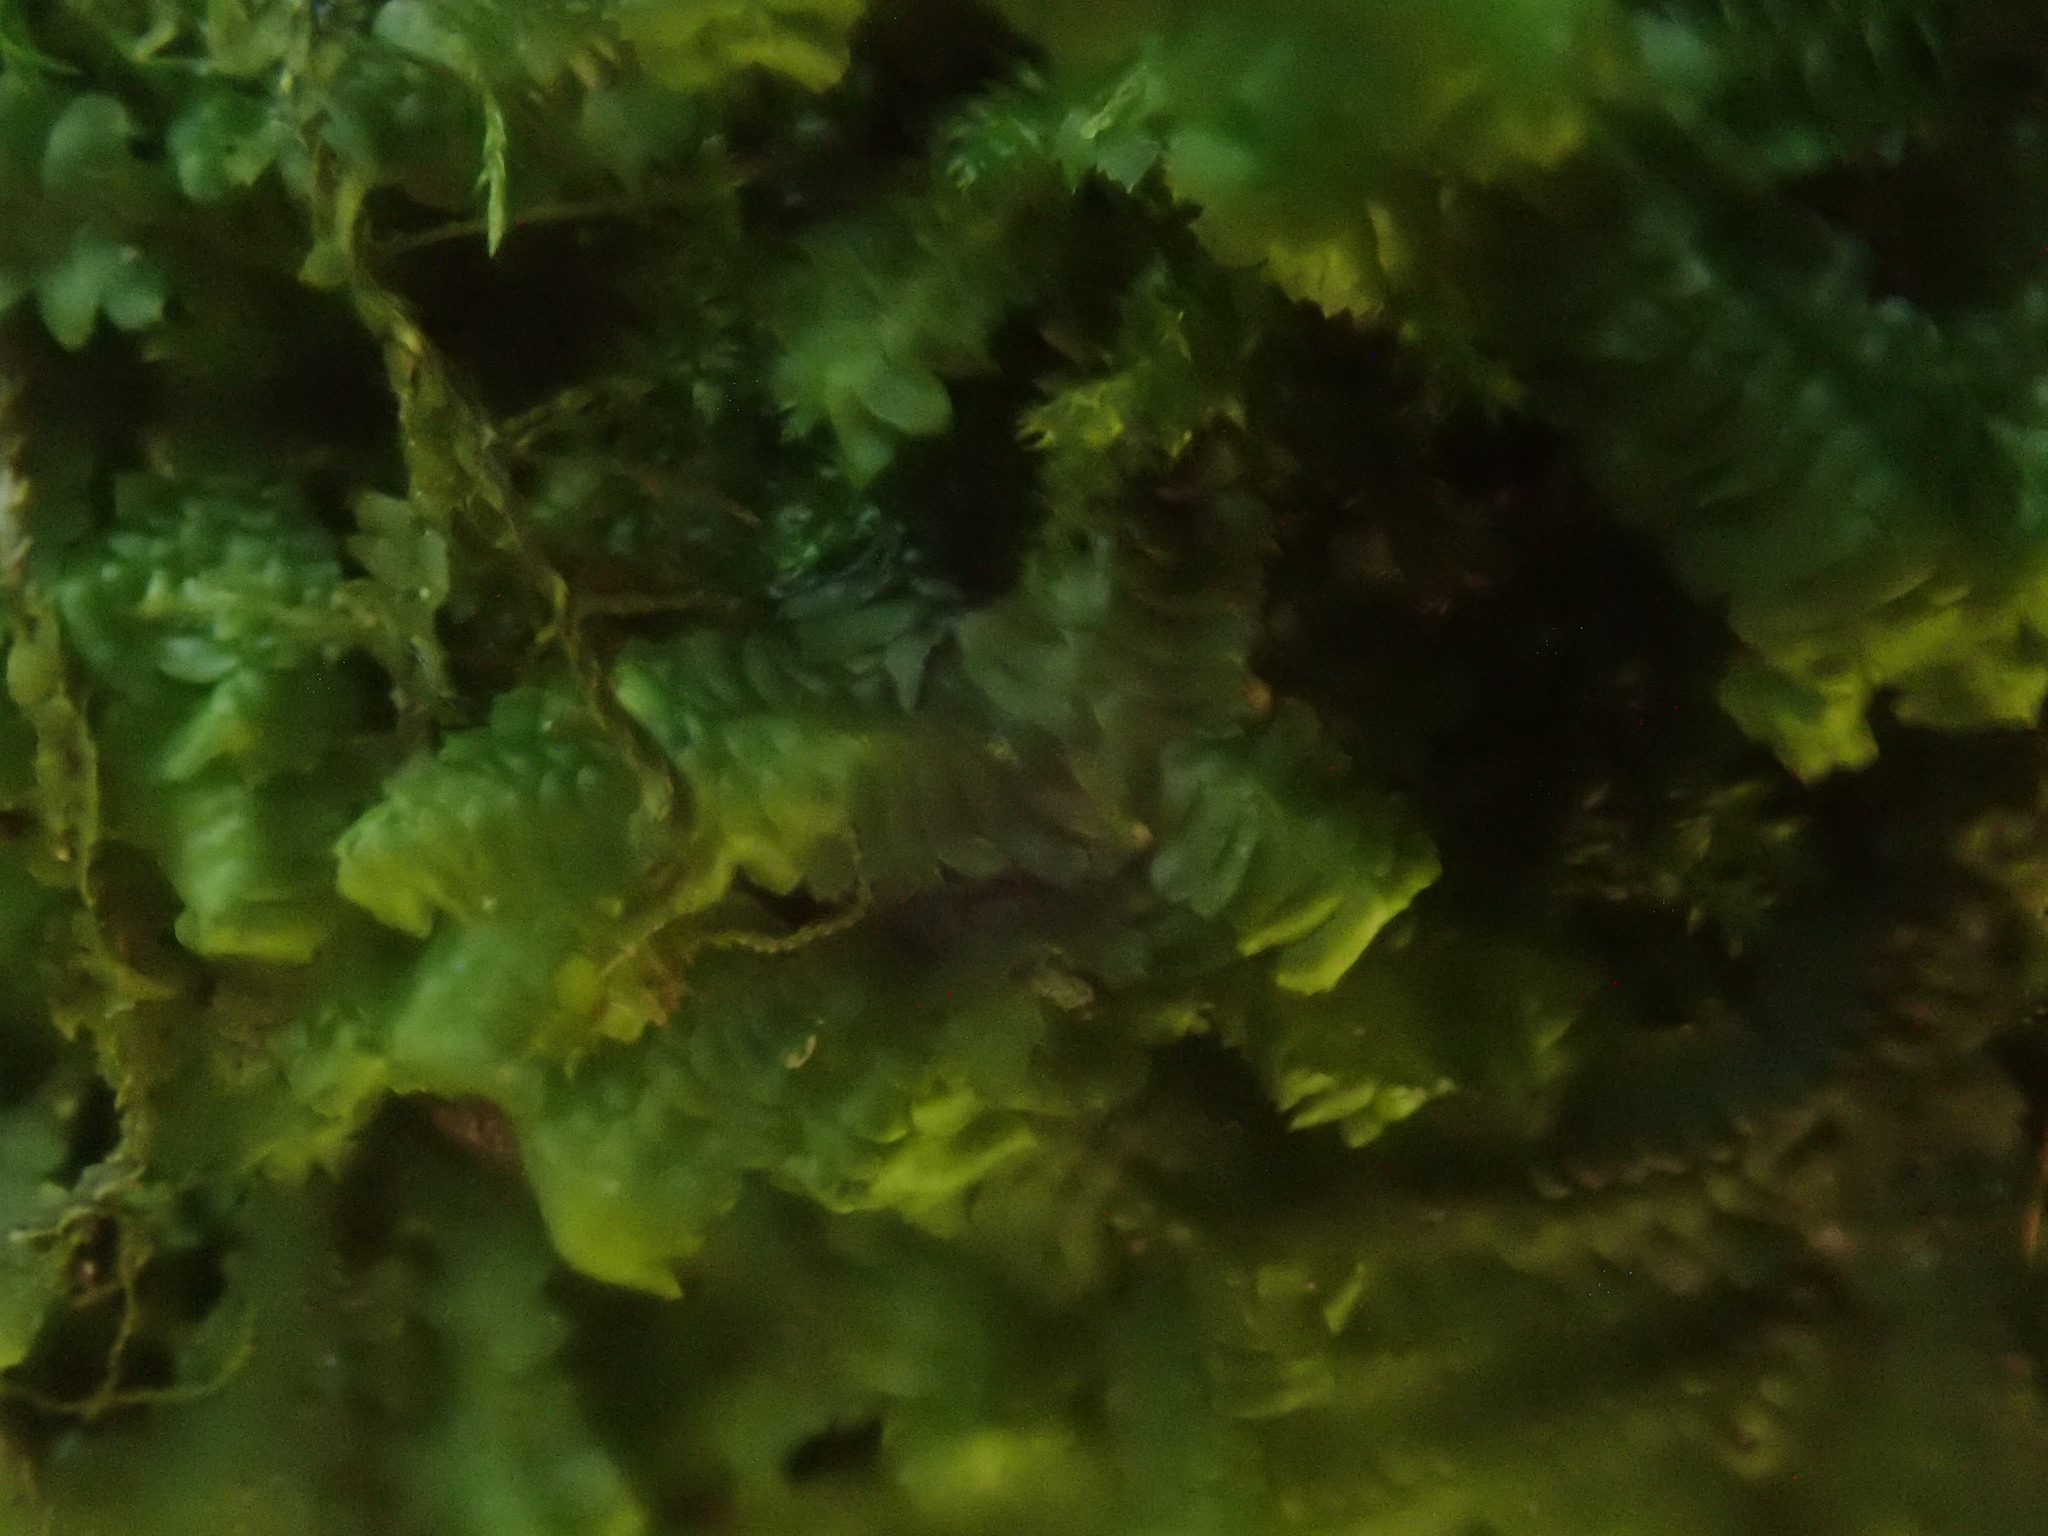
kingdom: Plantae
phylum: Marchantiophyta
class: Jungermanniopsida
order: Jungermanniales
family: Lepidoziaceae
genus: Bazzania
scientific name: Bazzania trilobata
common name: Three-lobed whipwort
